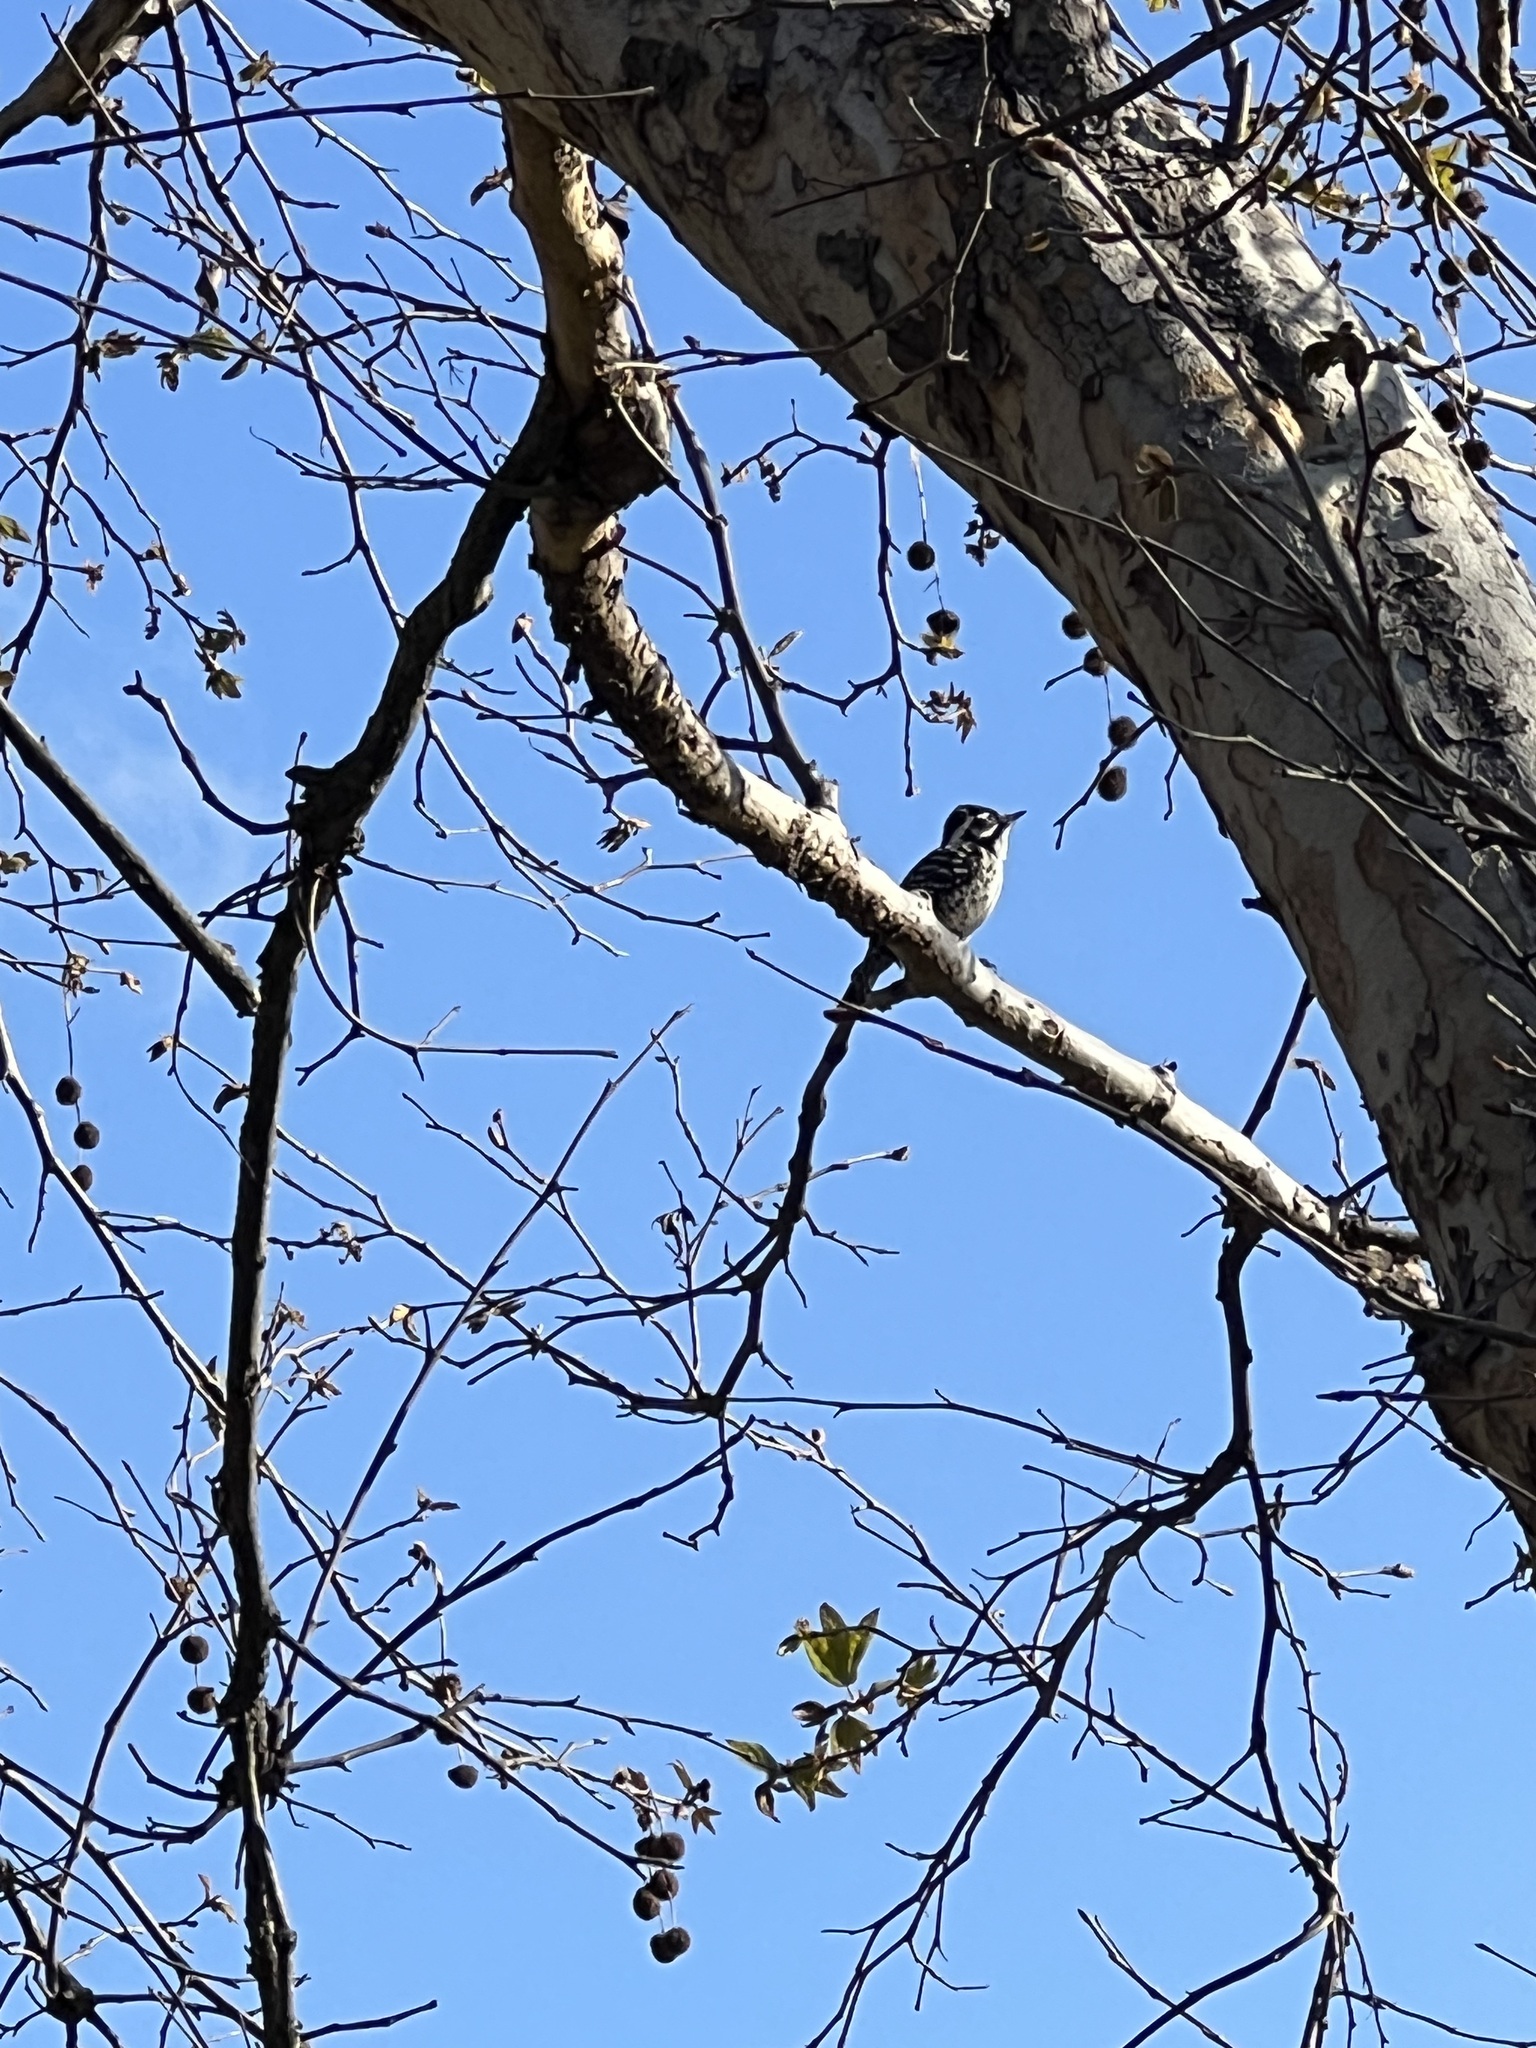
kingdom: Animalia
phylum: Chordata
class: Aves
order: Piciformes
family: Picidae
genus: Dryobates
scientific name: Dryobates nuttallii
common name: Nuttall's woodpecker
